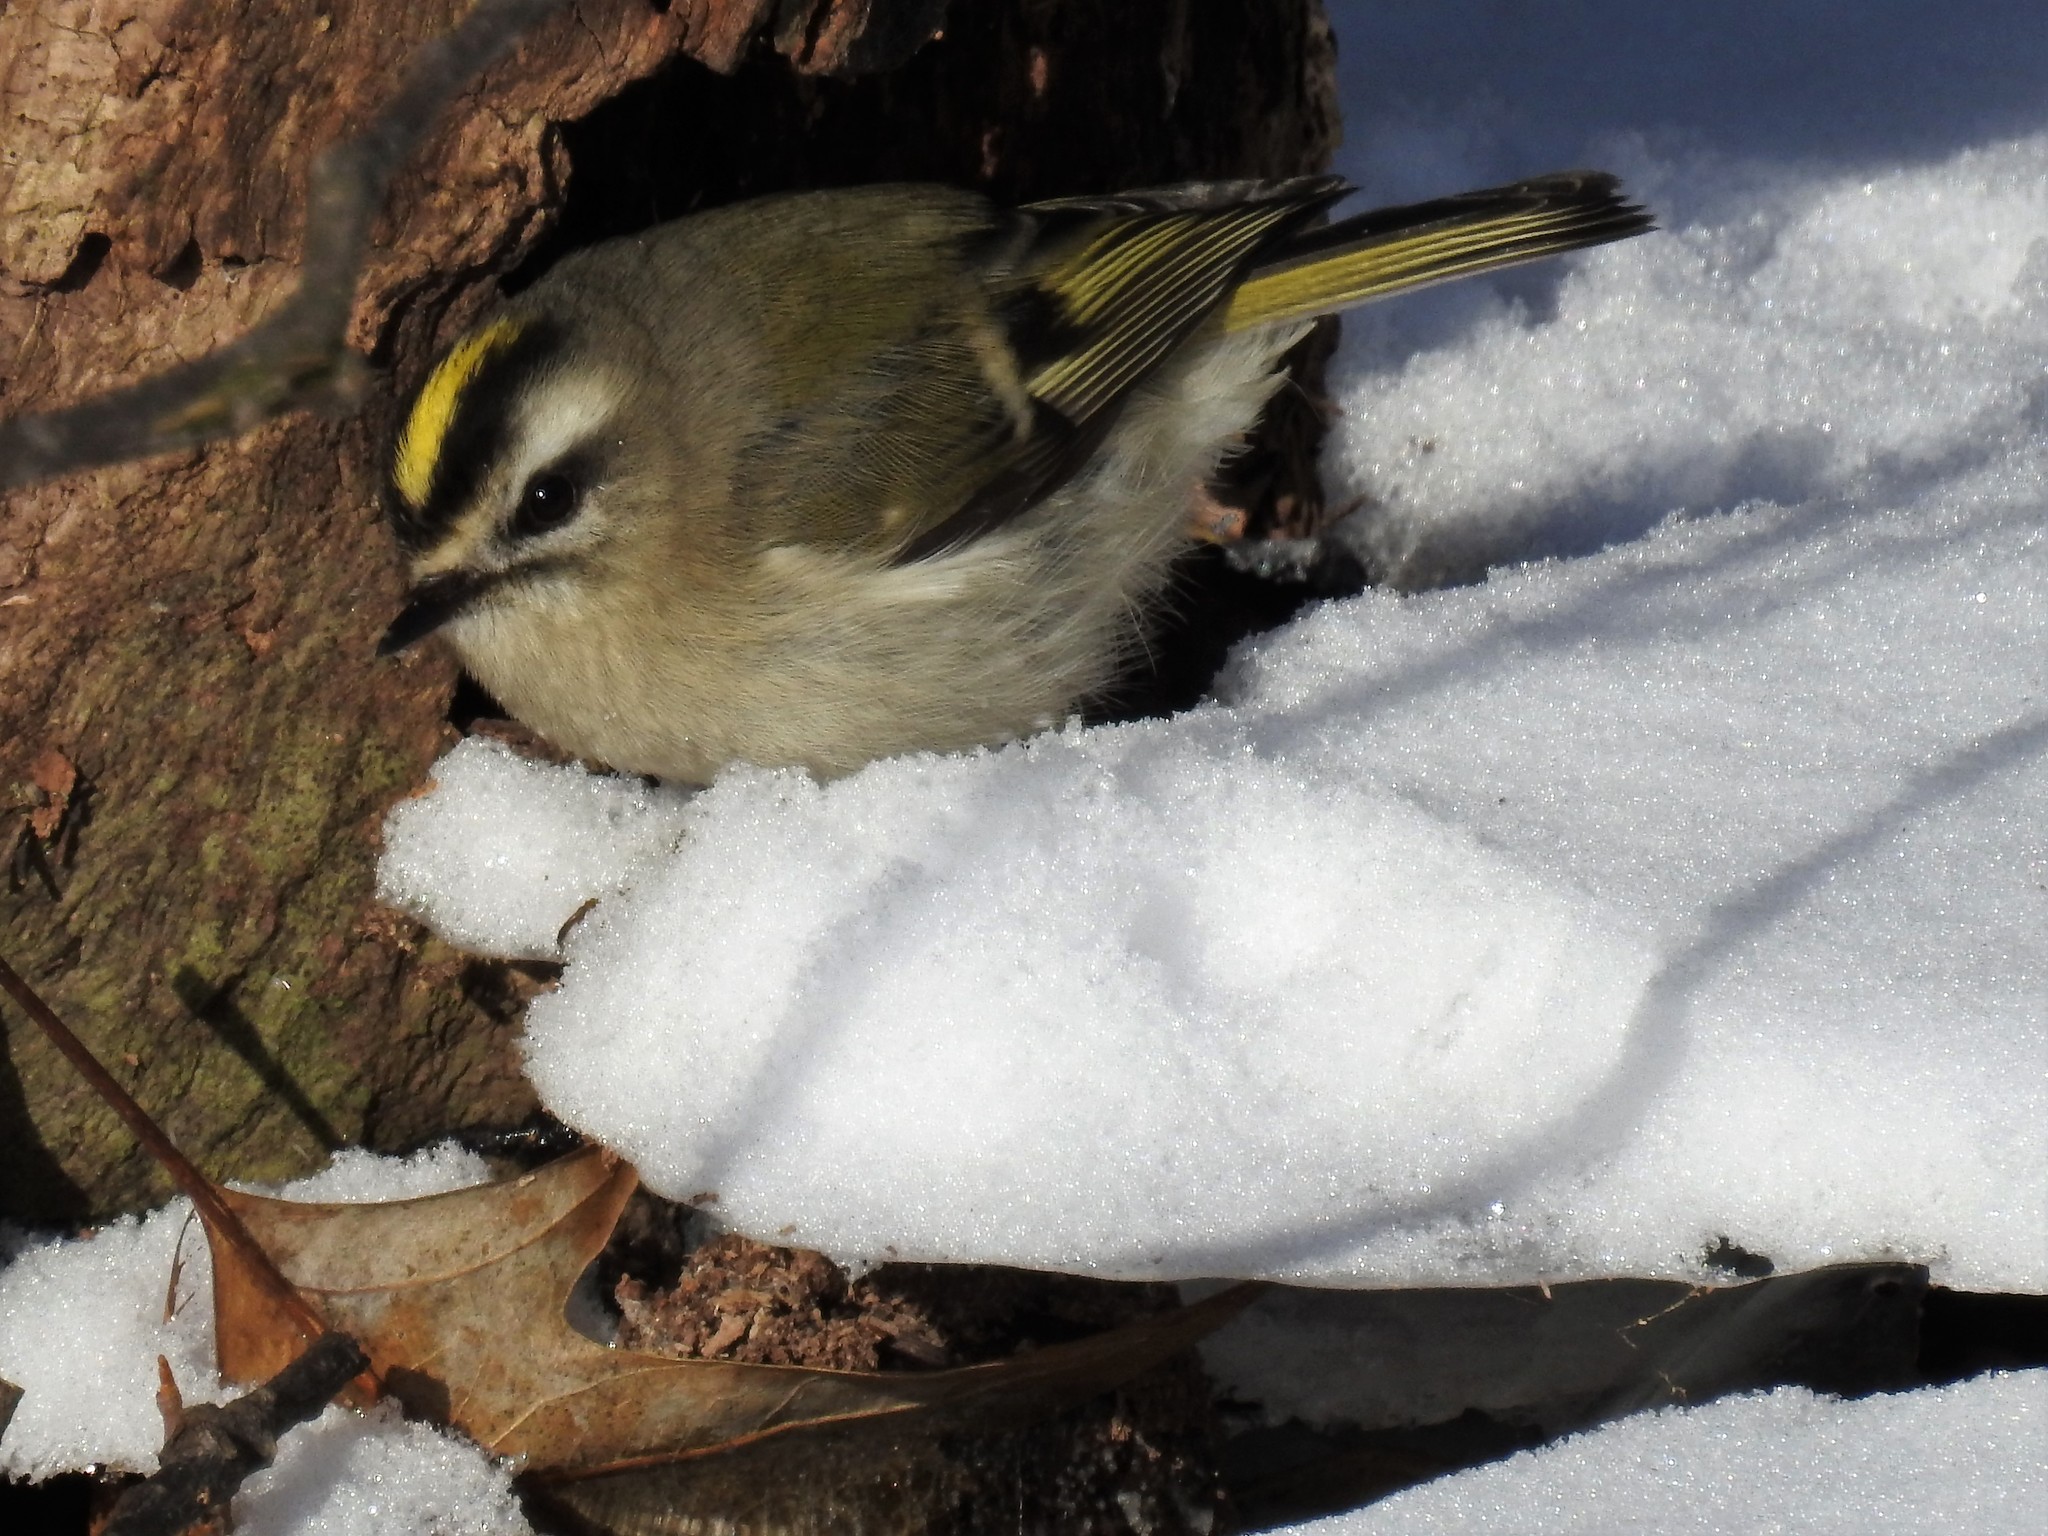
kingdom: Animalia
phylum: Chordata
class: Aves
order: Passeriformes
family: Regulidae
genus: Regulus
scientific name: Regulus satrapa
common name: Golden-crowned kinglet
